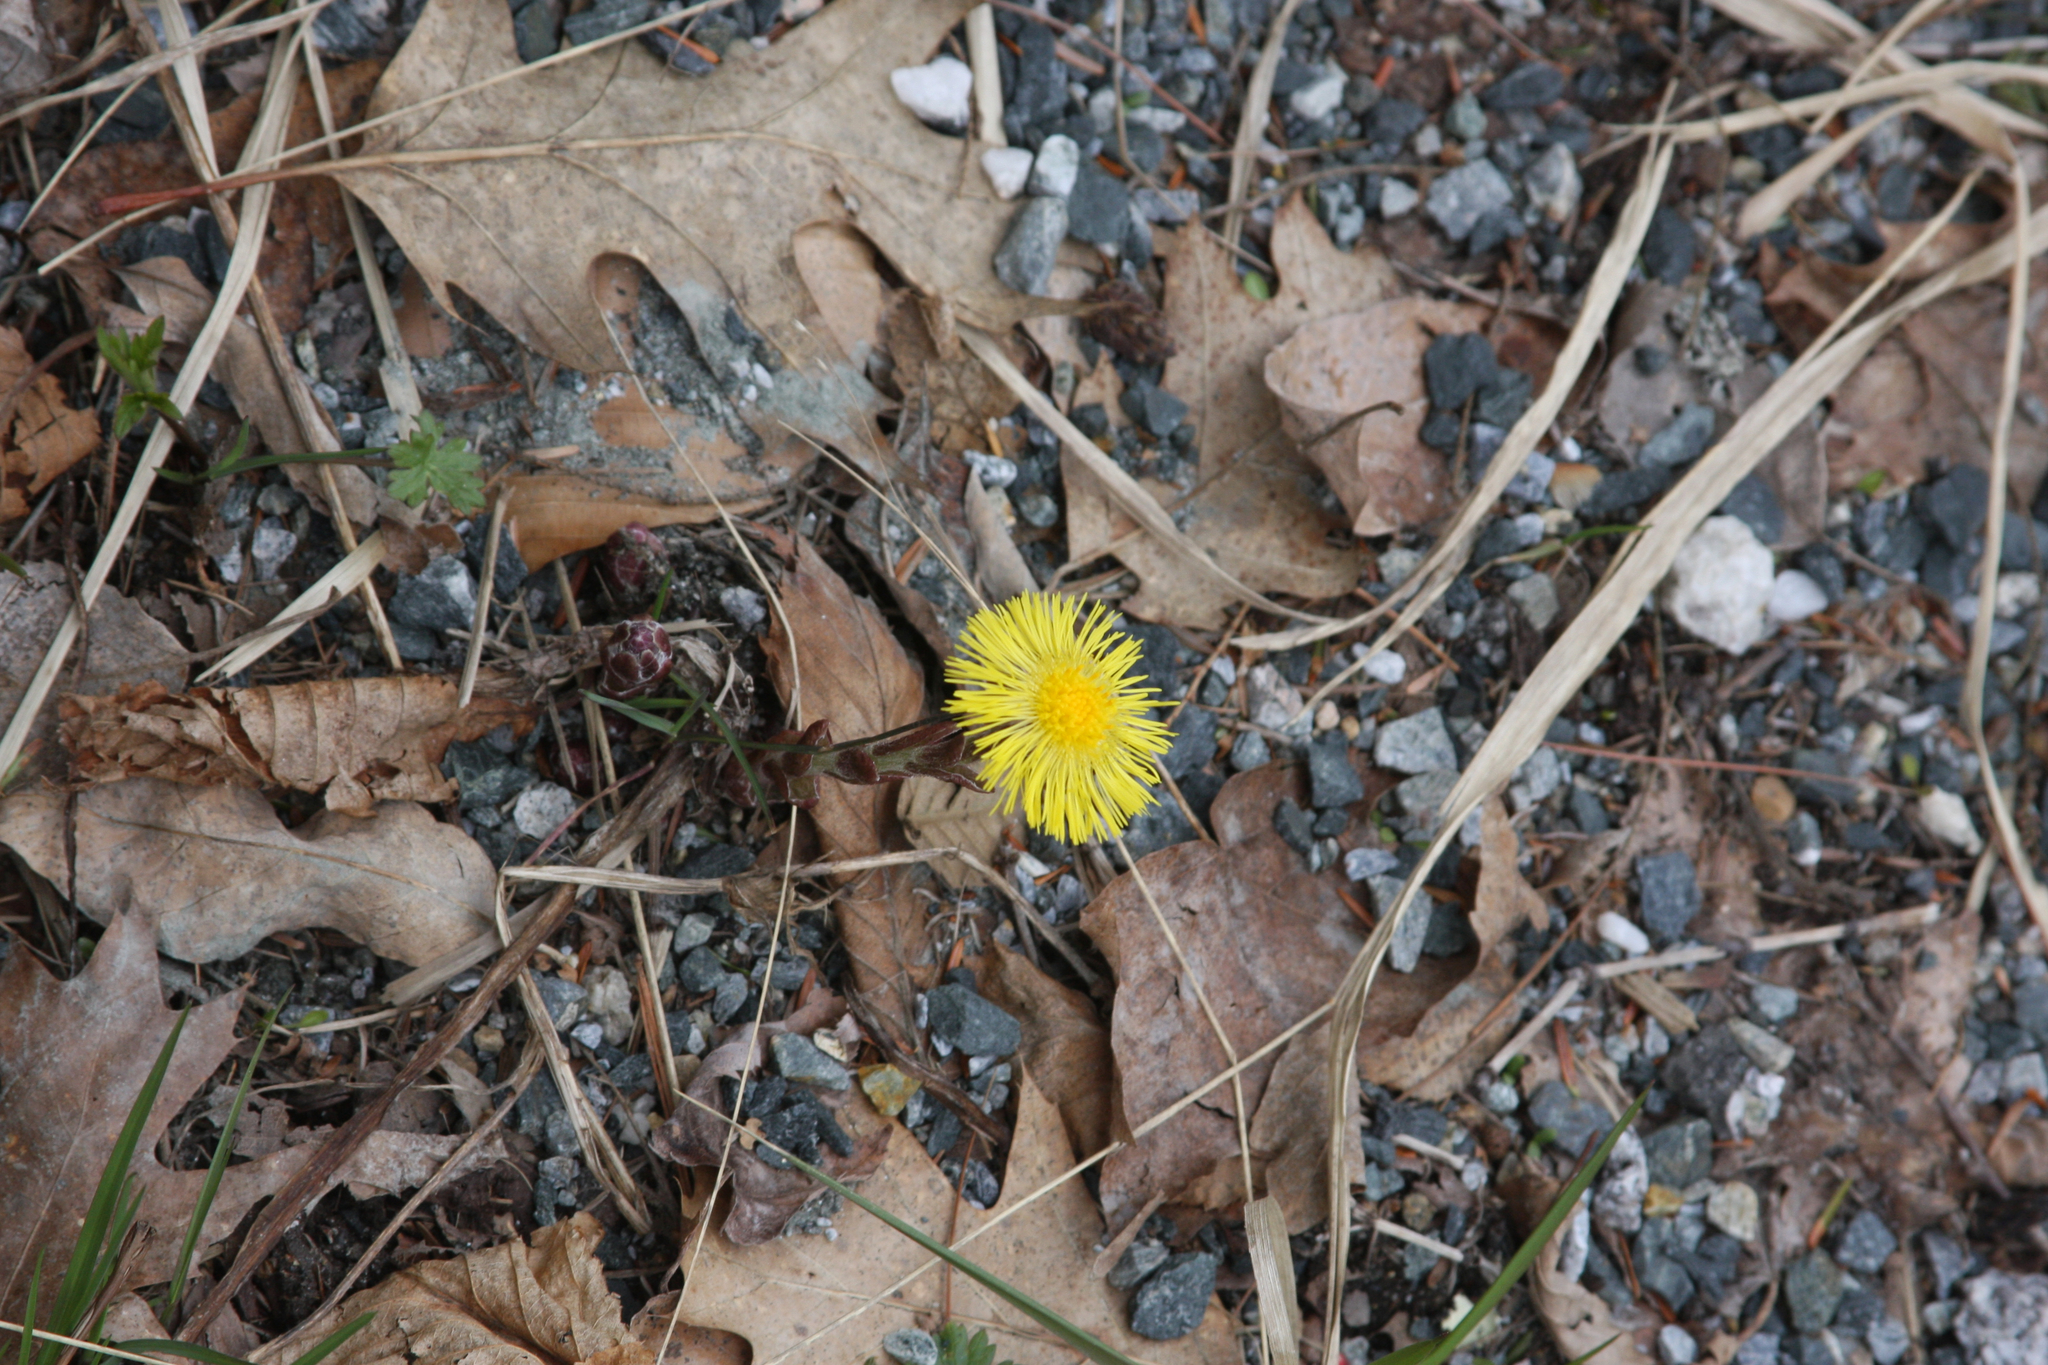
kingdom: Plantae
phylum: Tracheophyta
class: Magnoliopsida
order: Asterales
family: Asteraceae
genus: Tussilago
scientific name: Tussilago farfara
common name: Coltsfoot
